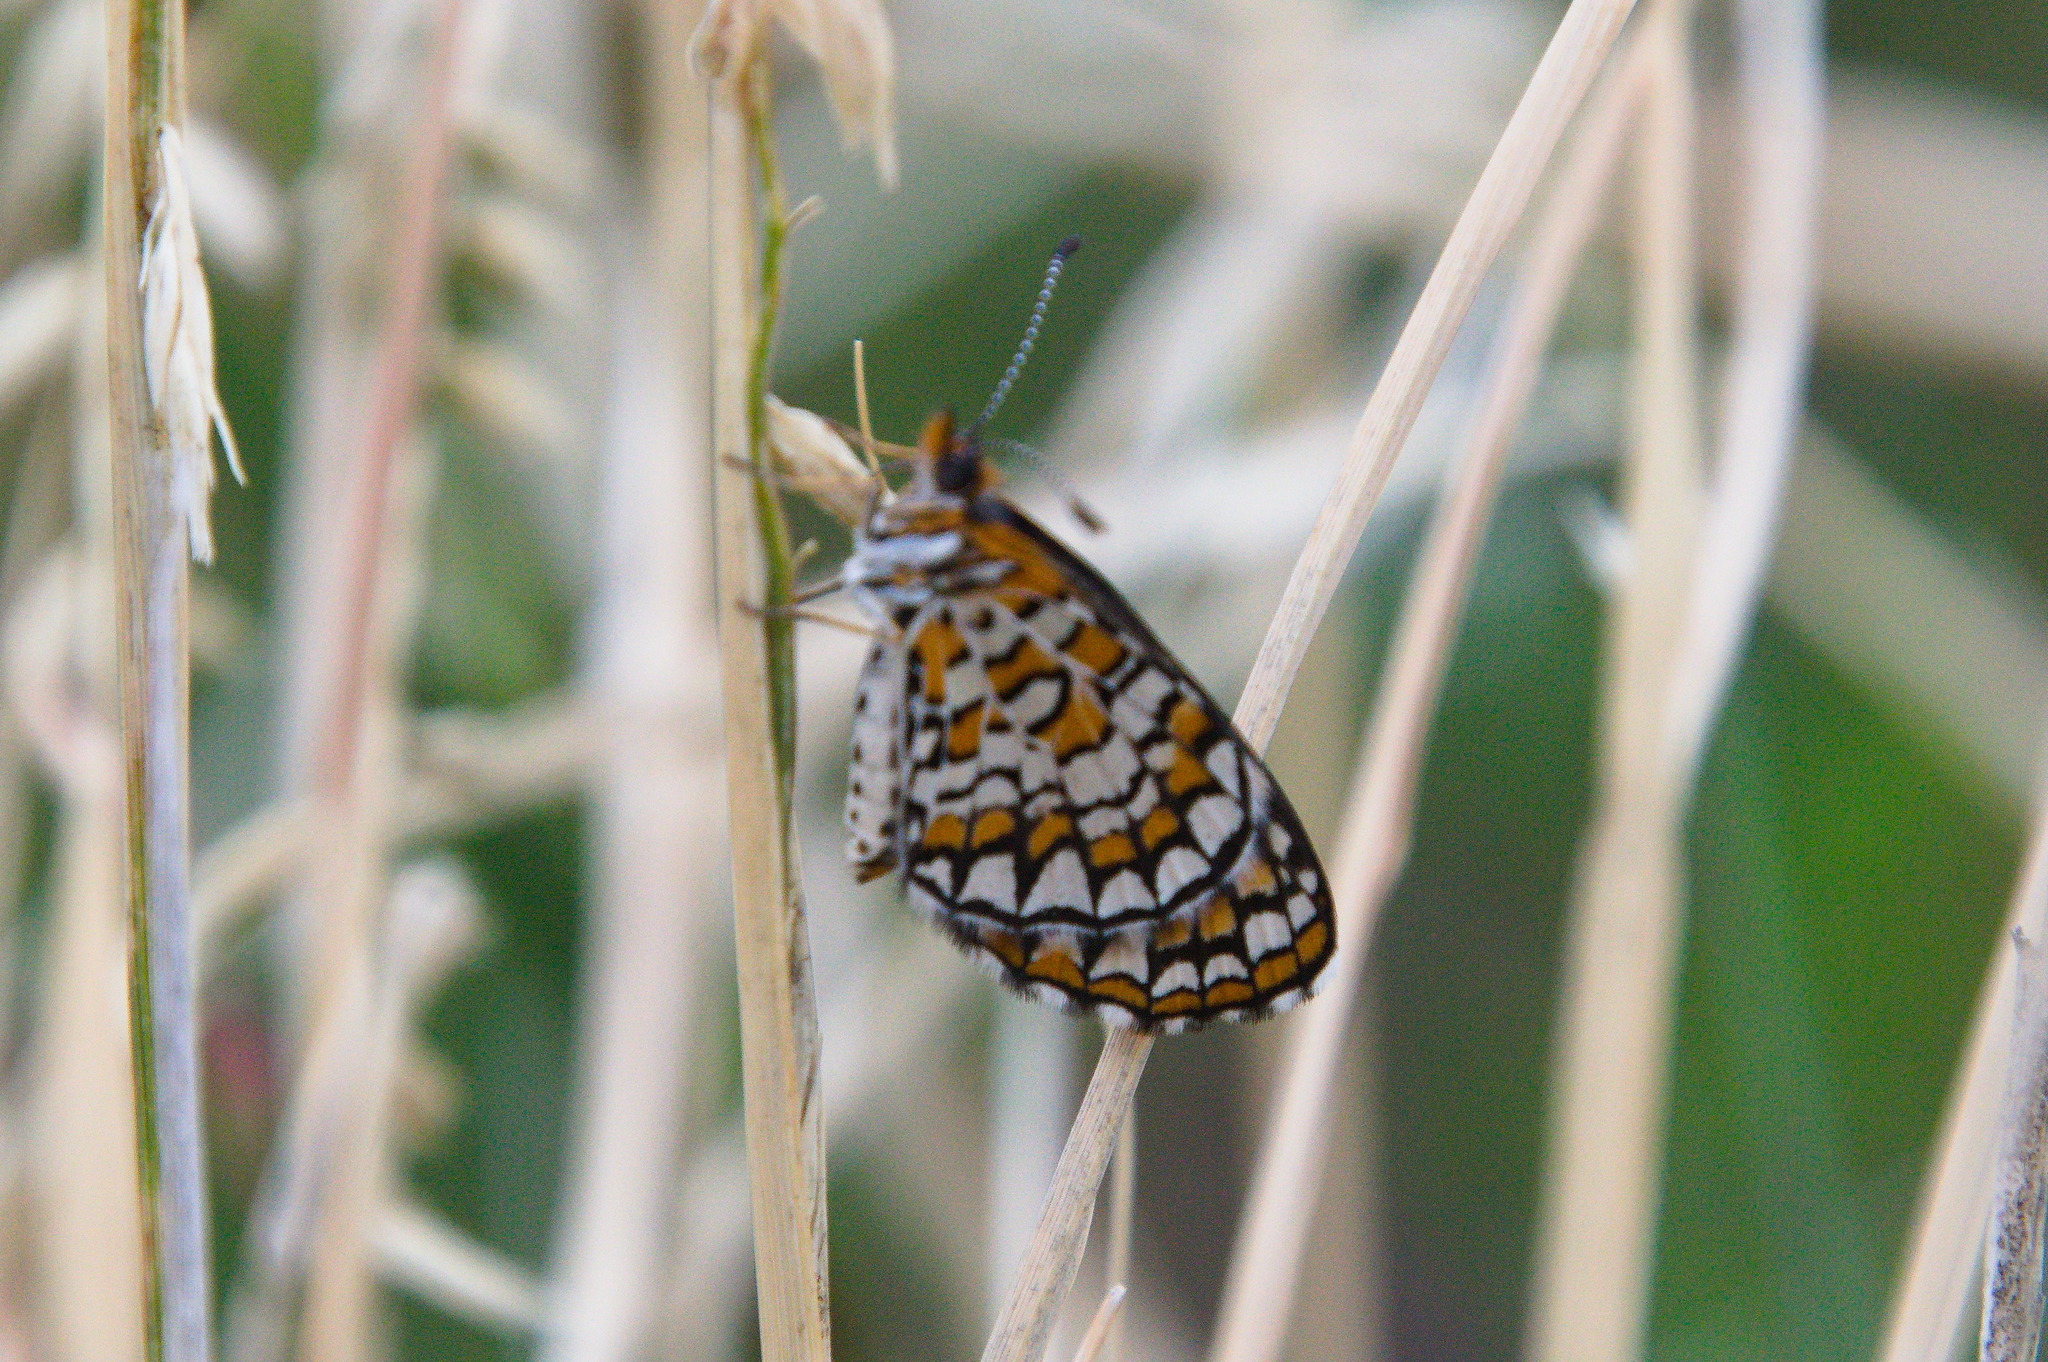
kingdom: Animalia
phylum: Arthropoda
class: Insecta
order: Lepidoptera
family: Nymphalidae
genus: Dymasia
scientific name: Dymasia dymas
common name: Tiny checkerspot
